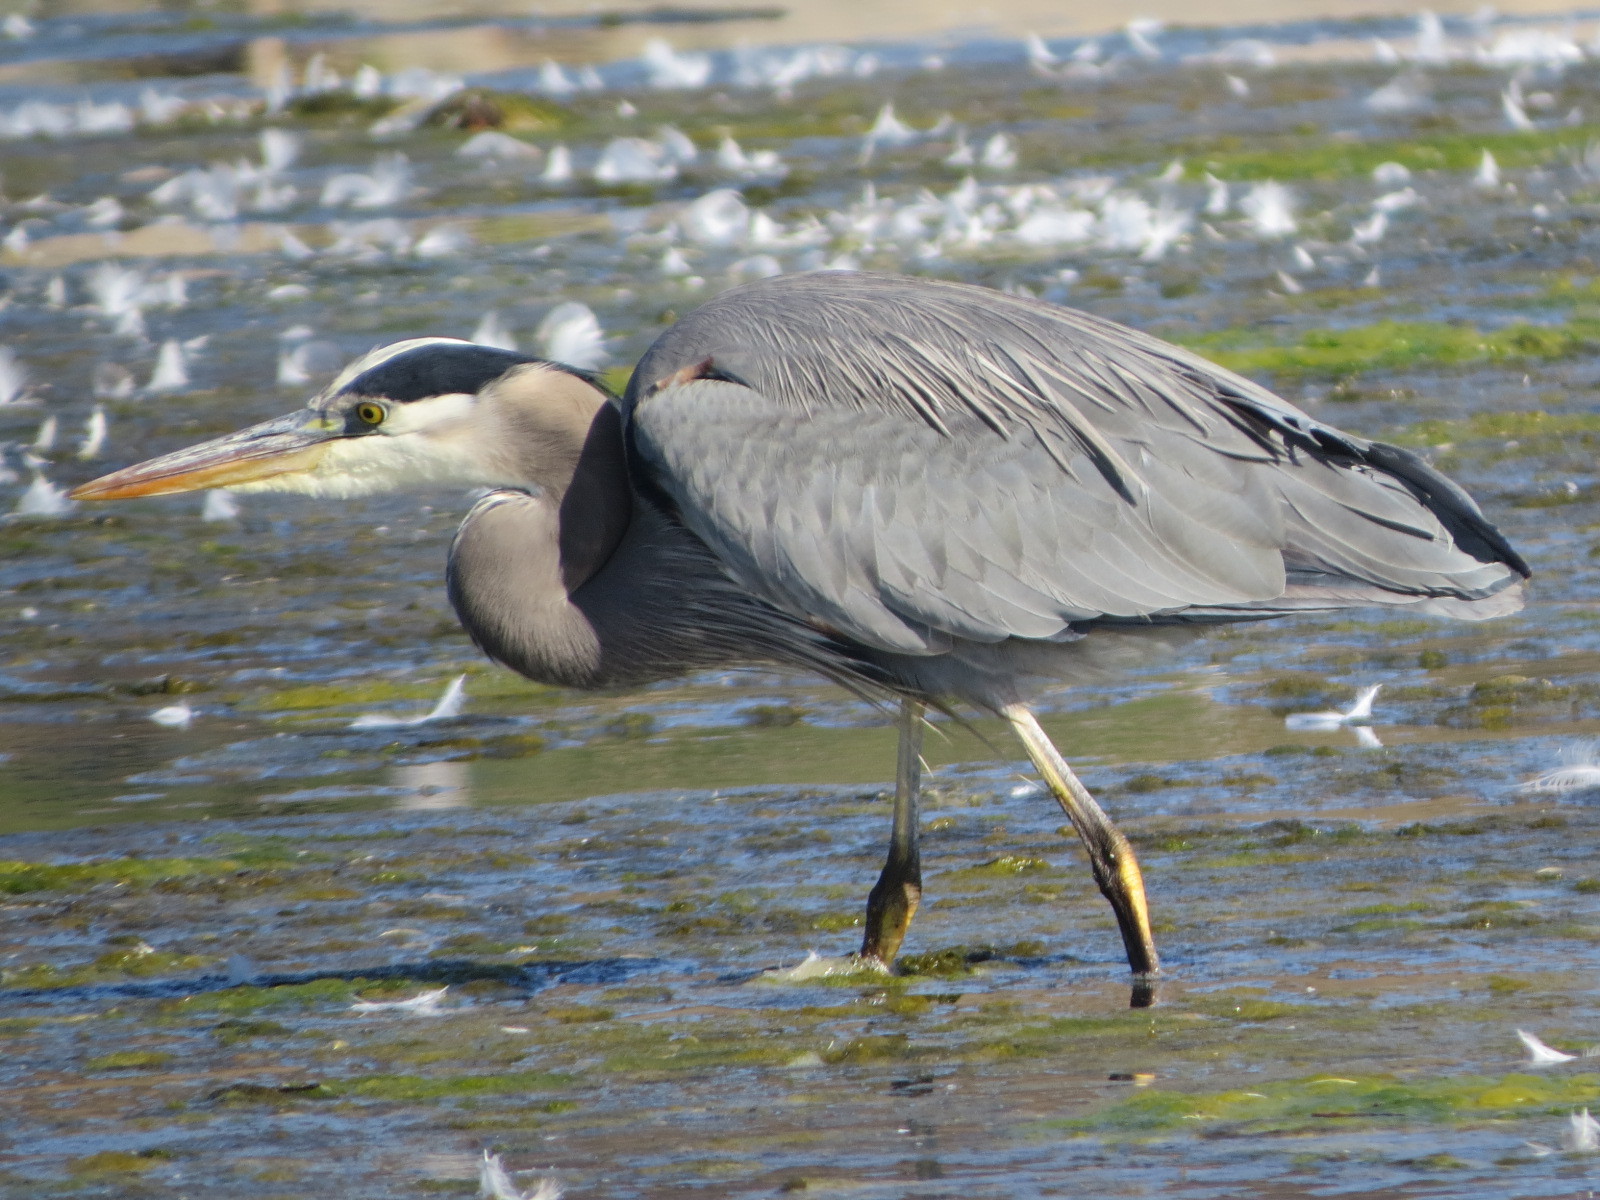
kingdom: Animalia
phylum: Chordata
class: Aves
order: Pelecaniformes
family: Ardeidae
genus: Ardea
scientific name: Ardea herodias
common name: Great blue heron
